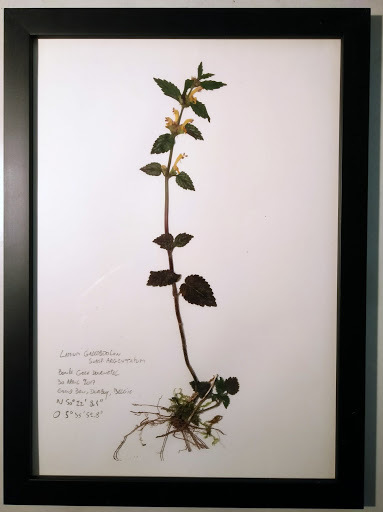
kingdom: Plantae
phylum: Tracheophyta
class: Magnoliopsida
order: Lamiales
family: Lamiaceae
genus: Lamium
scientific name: Lamium galeobdolon
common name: Yellow archangel
